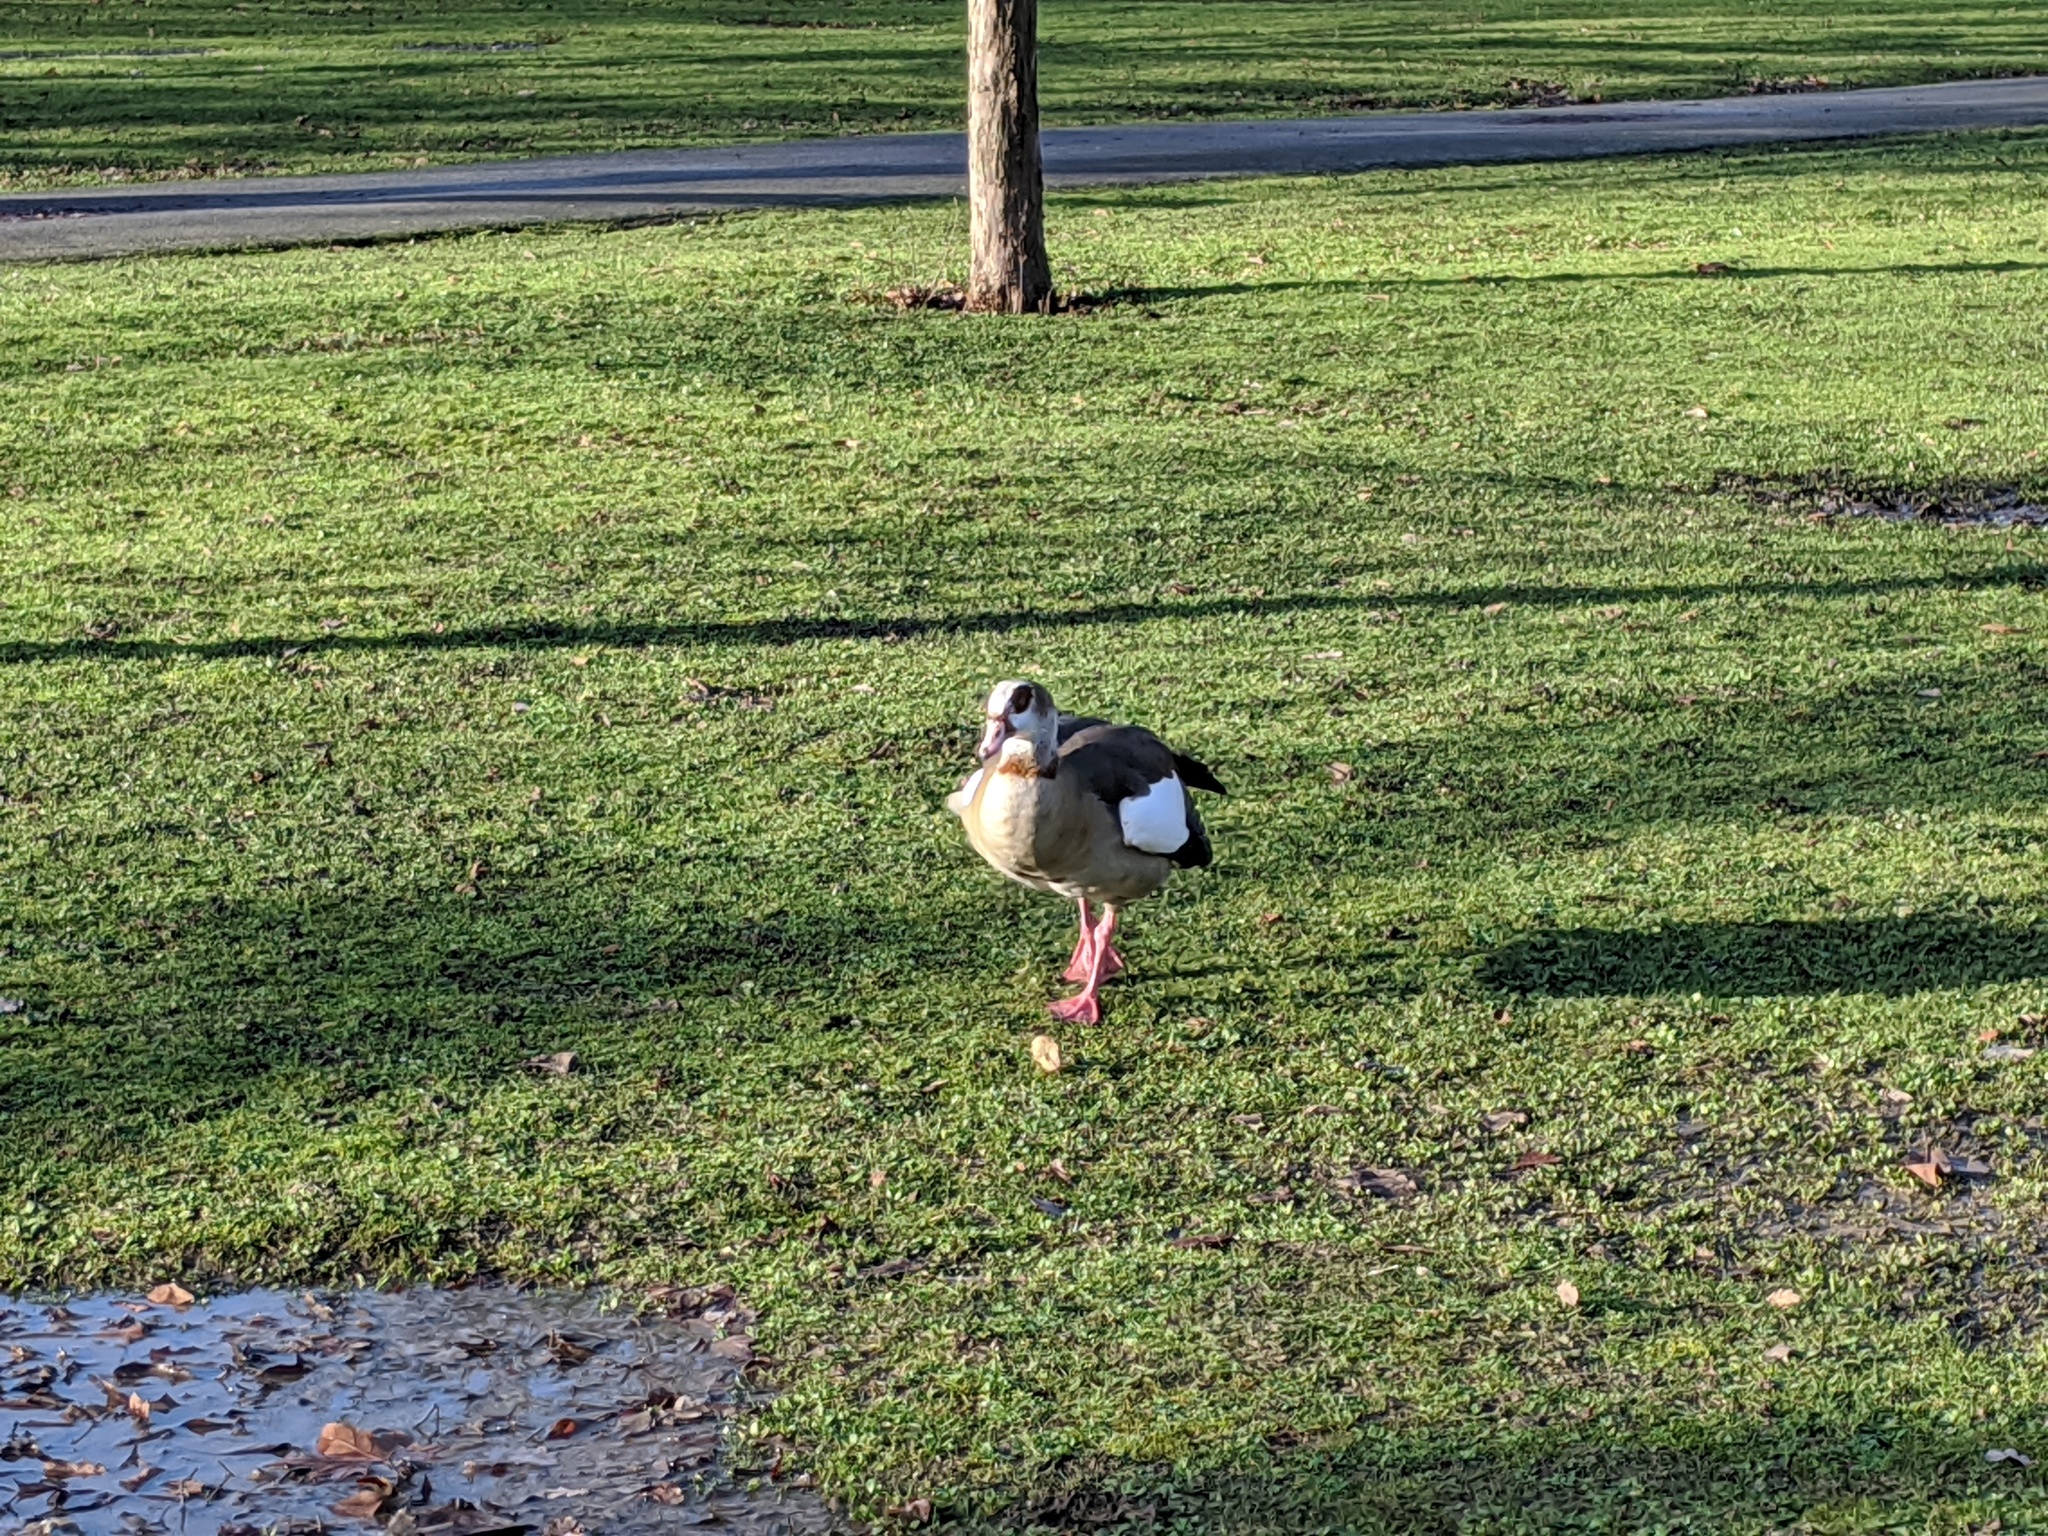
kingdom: Animalia
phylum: Chordata
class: Aves
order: Anseriformes
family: Anatidae
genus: Alopochen
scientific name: Alopochen aegyptiaca
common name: Egyptian goose
